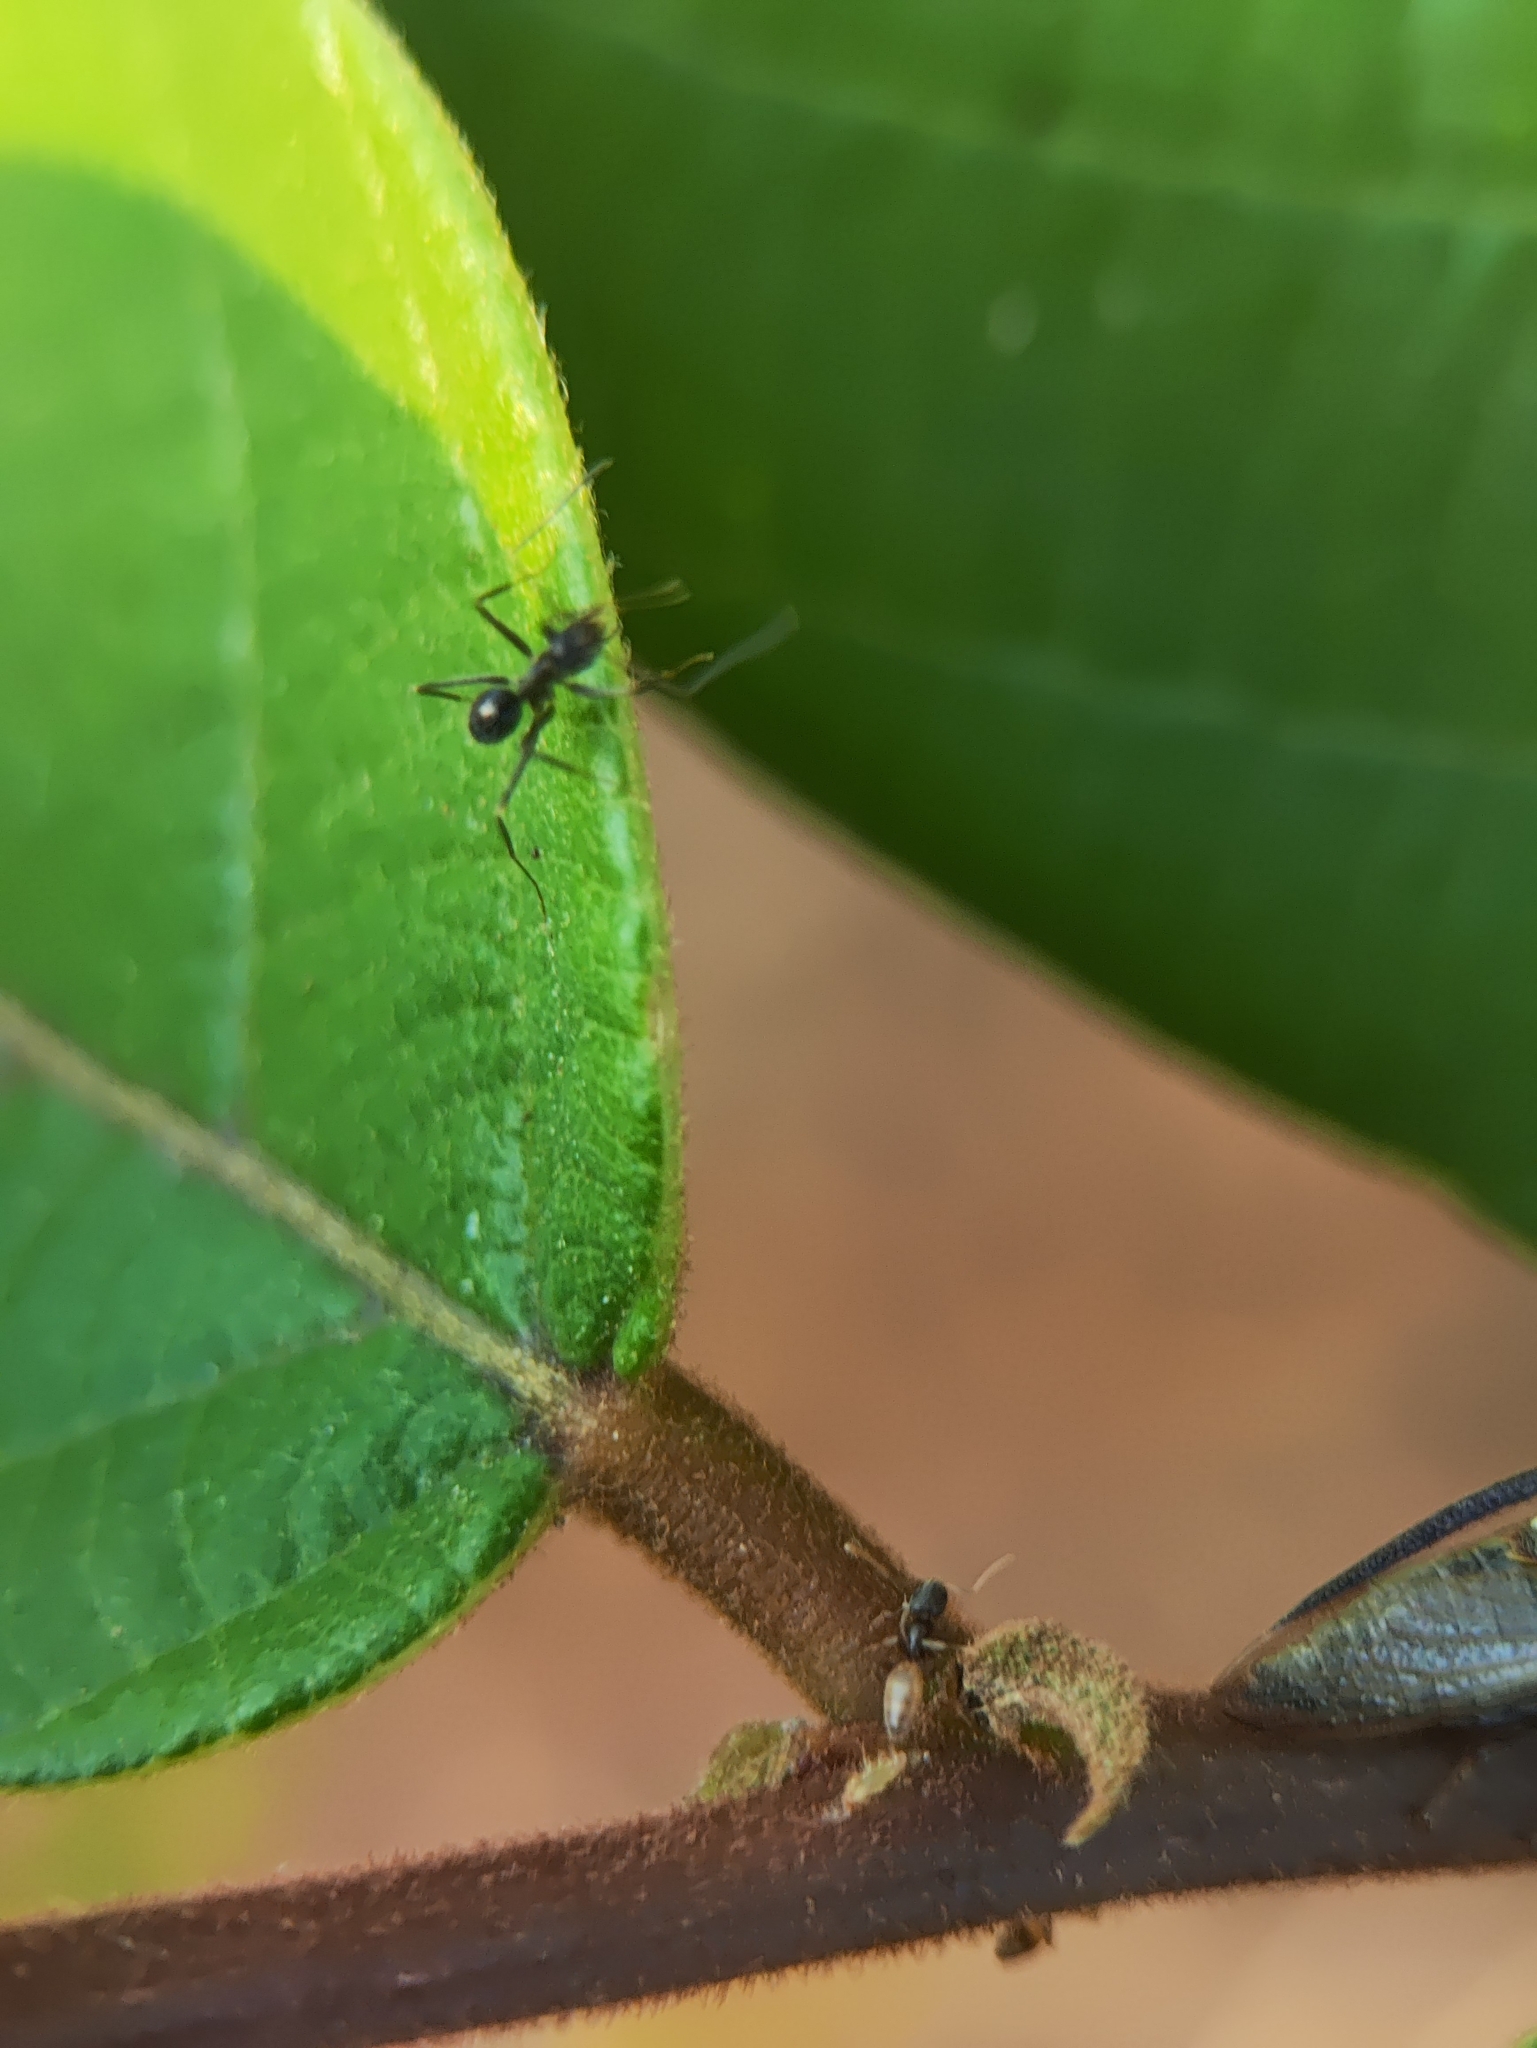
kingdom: Animalia
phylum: Arthropoda
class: Insecta
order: Hymenoptera
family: Formicidae
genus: Paratrechina
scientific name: Paratrechina longicornis
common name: Longhorned crazy ant
